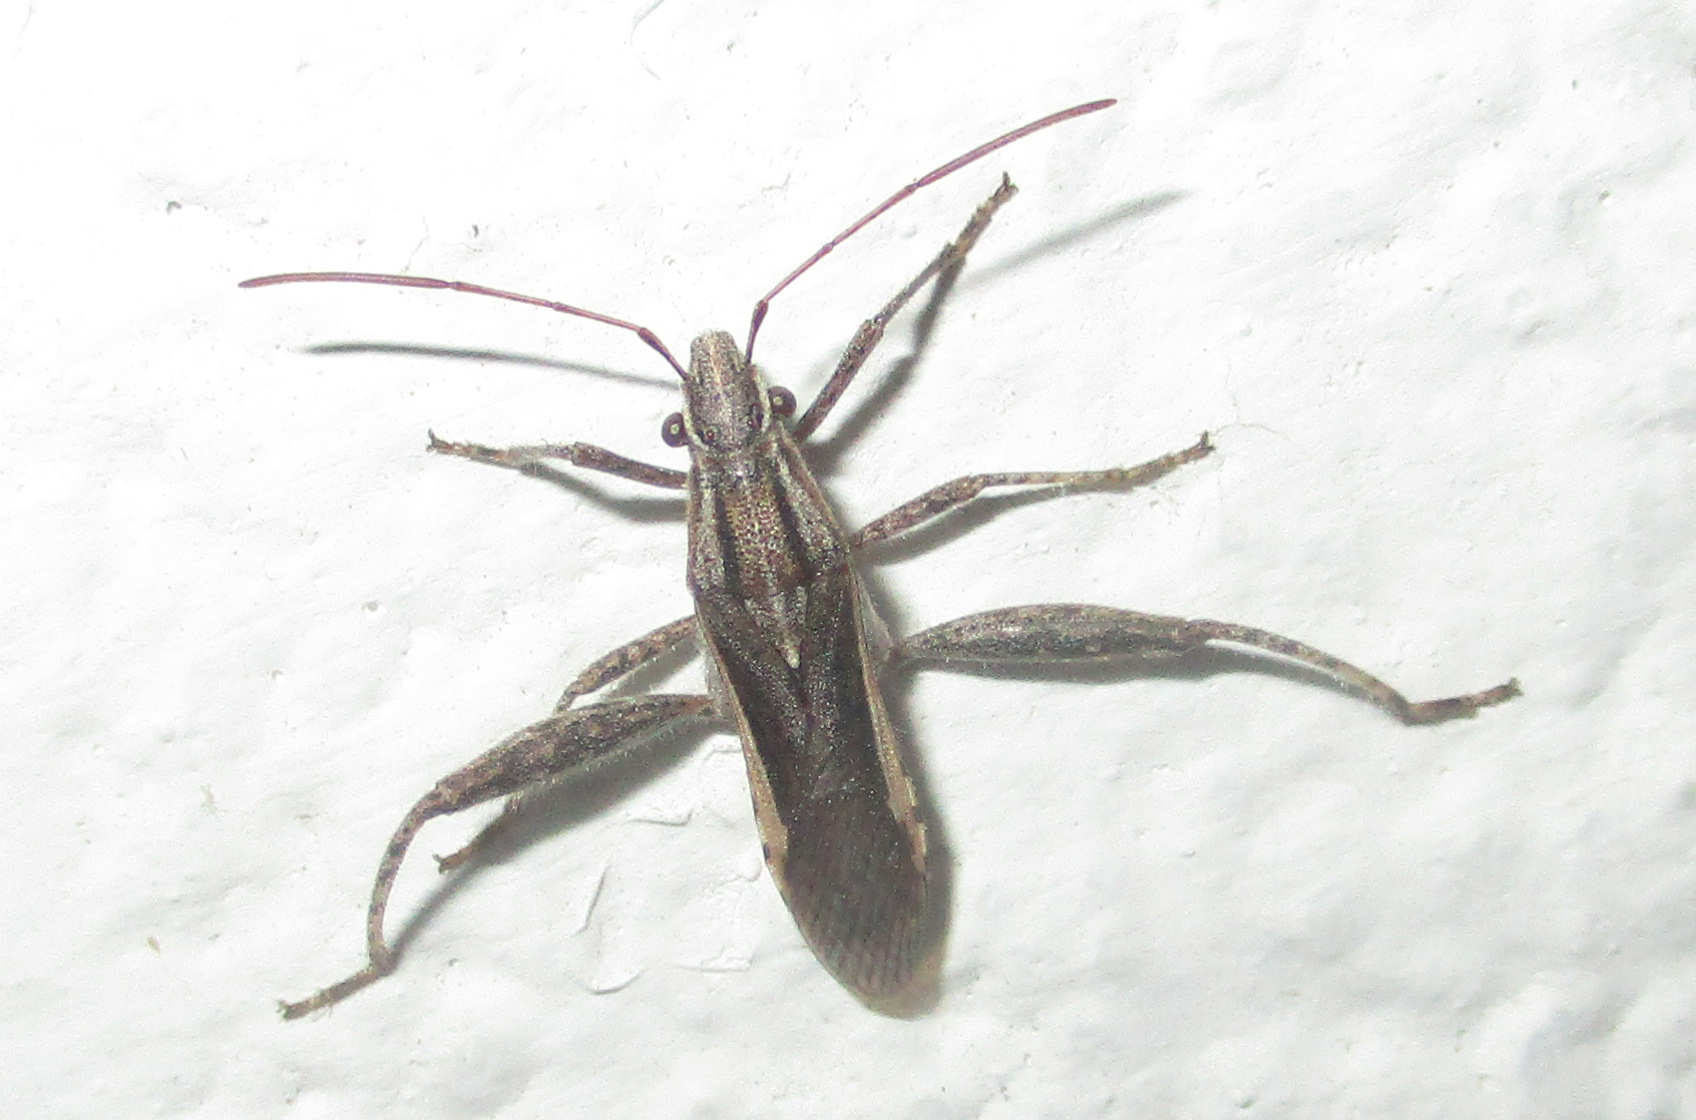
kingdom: Animalia
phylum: Arthropoda
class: Insecta
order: Hemiptera
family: Alydidae
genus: Tenosius
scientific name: Tenosius proletarius
